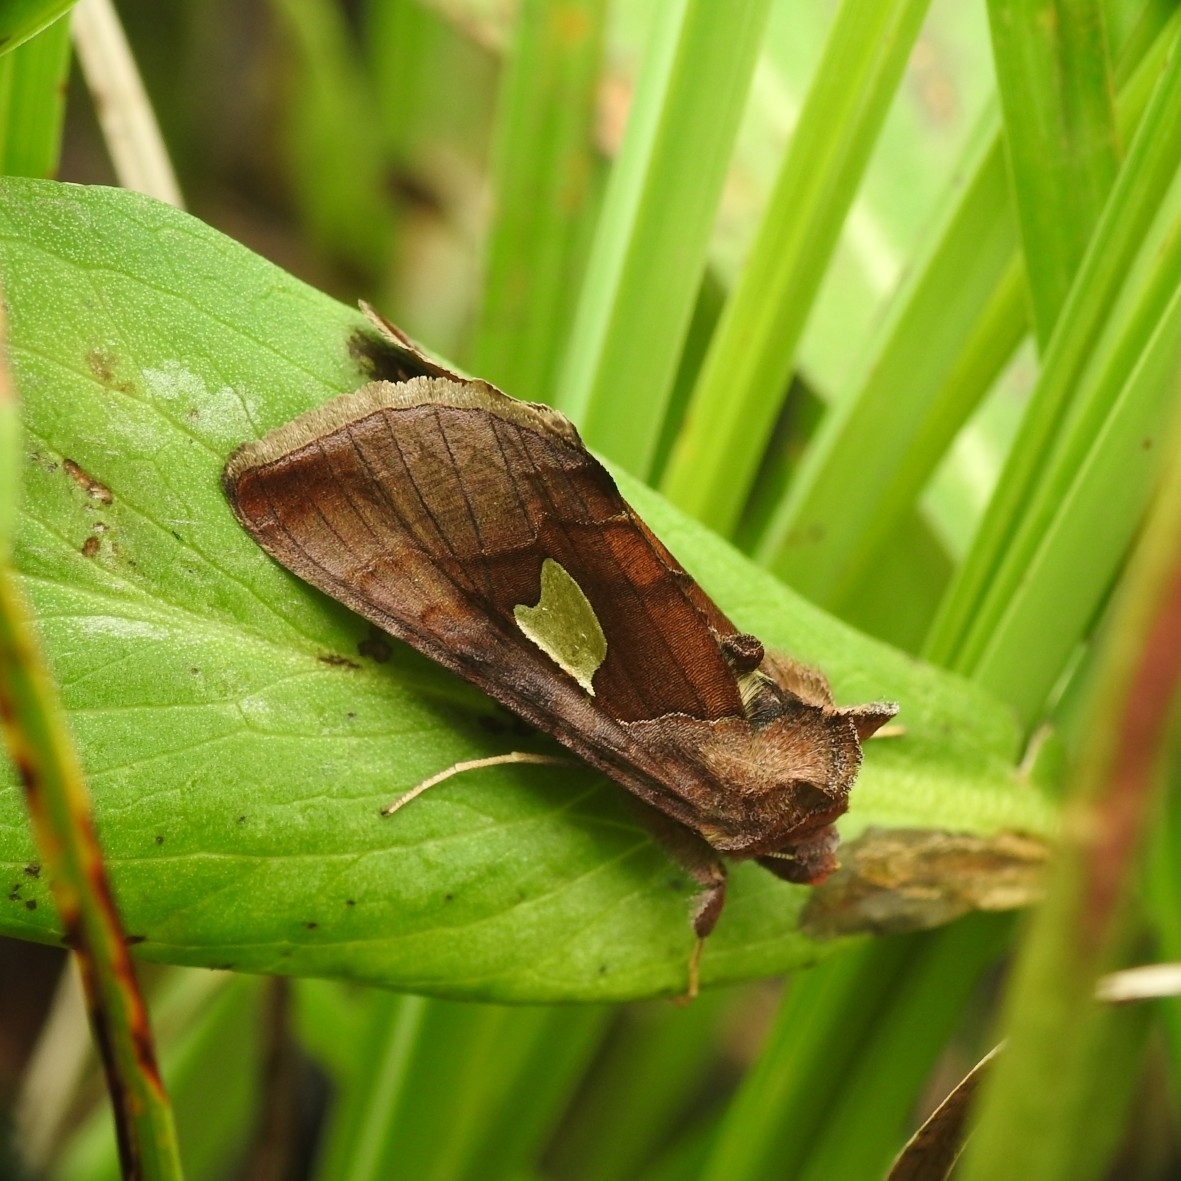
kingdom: Animalia
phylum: Arthropoda
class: Insecta
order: Lepidoptera
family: Noctuidae
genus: Autographa
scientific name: Autographa bractea
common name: Gold spangle
